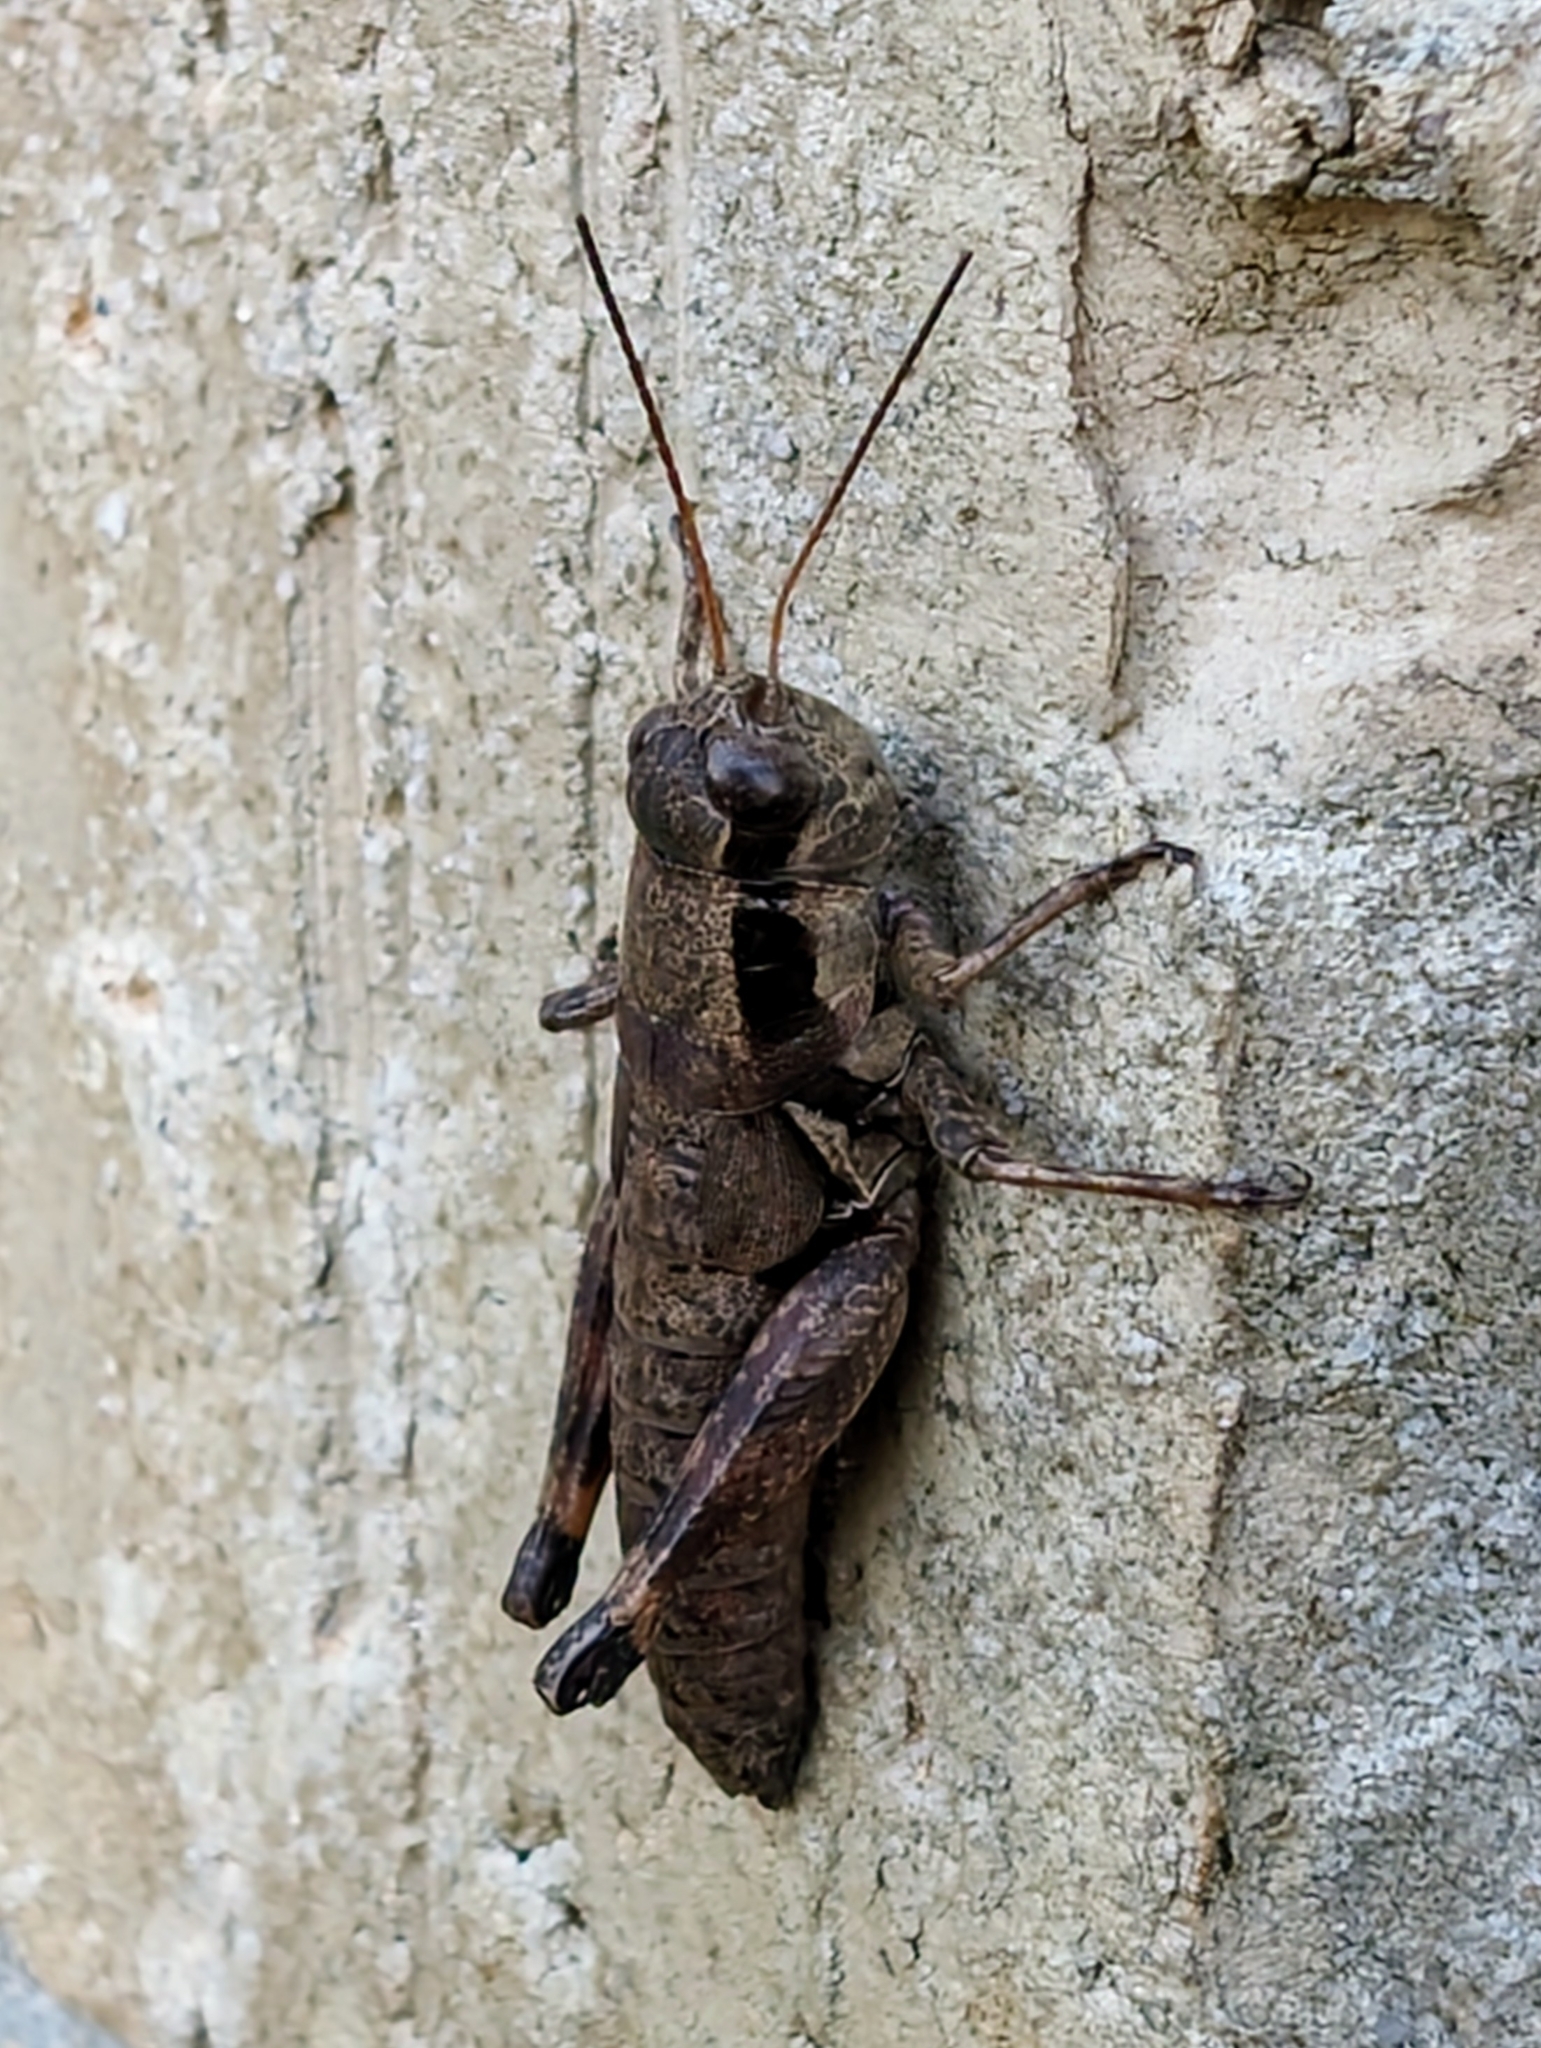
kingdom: Animalia
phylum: Arthropoda
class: Insecta
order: Orthoptera
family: Acrididae
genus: Melanoplus
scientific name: Melanoplus rusticus
